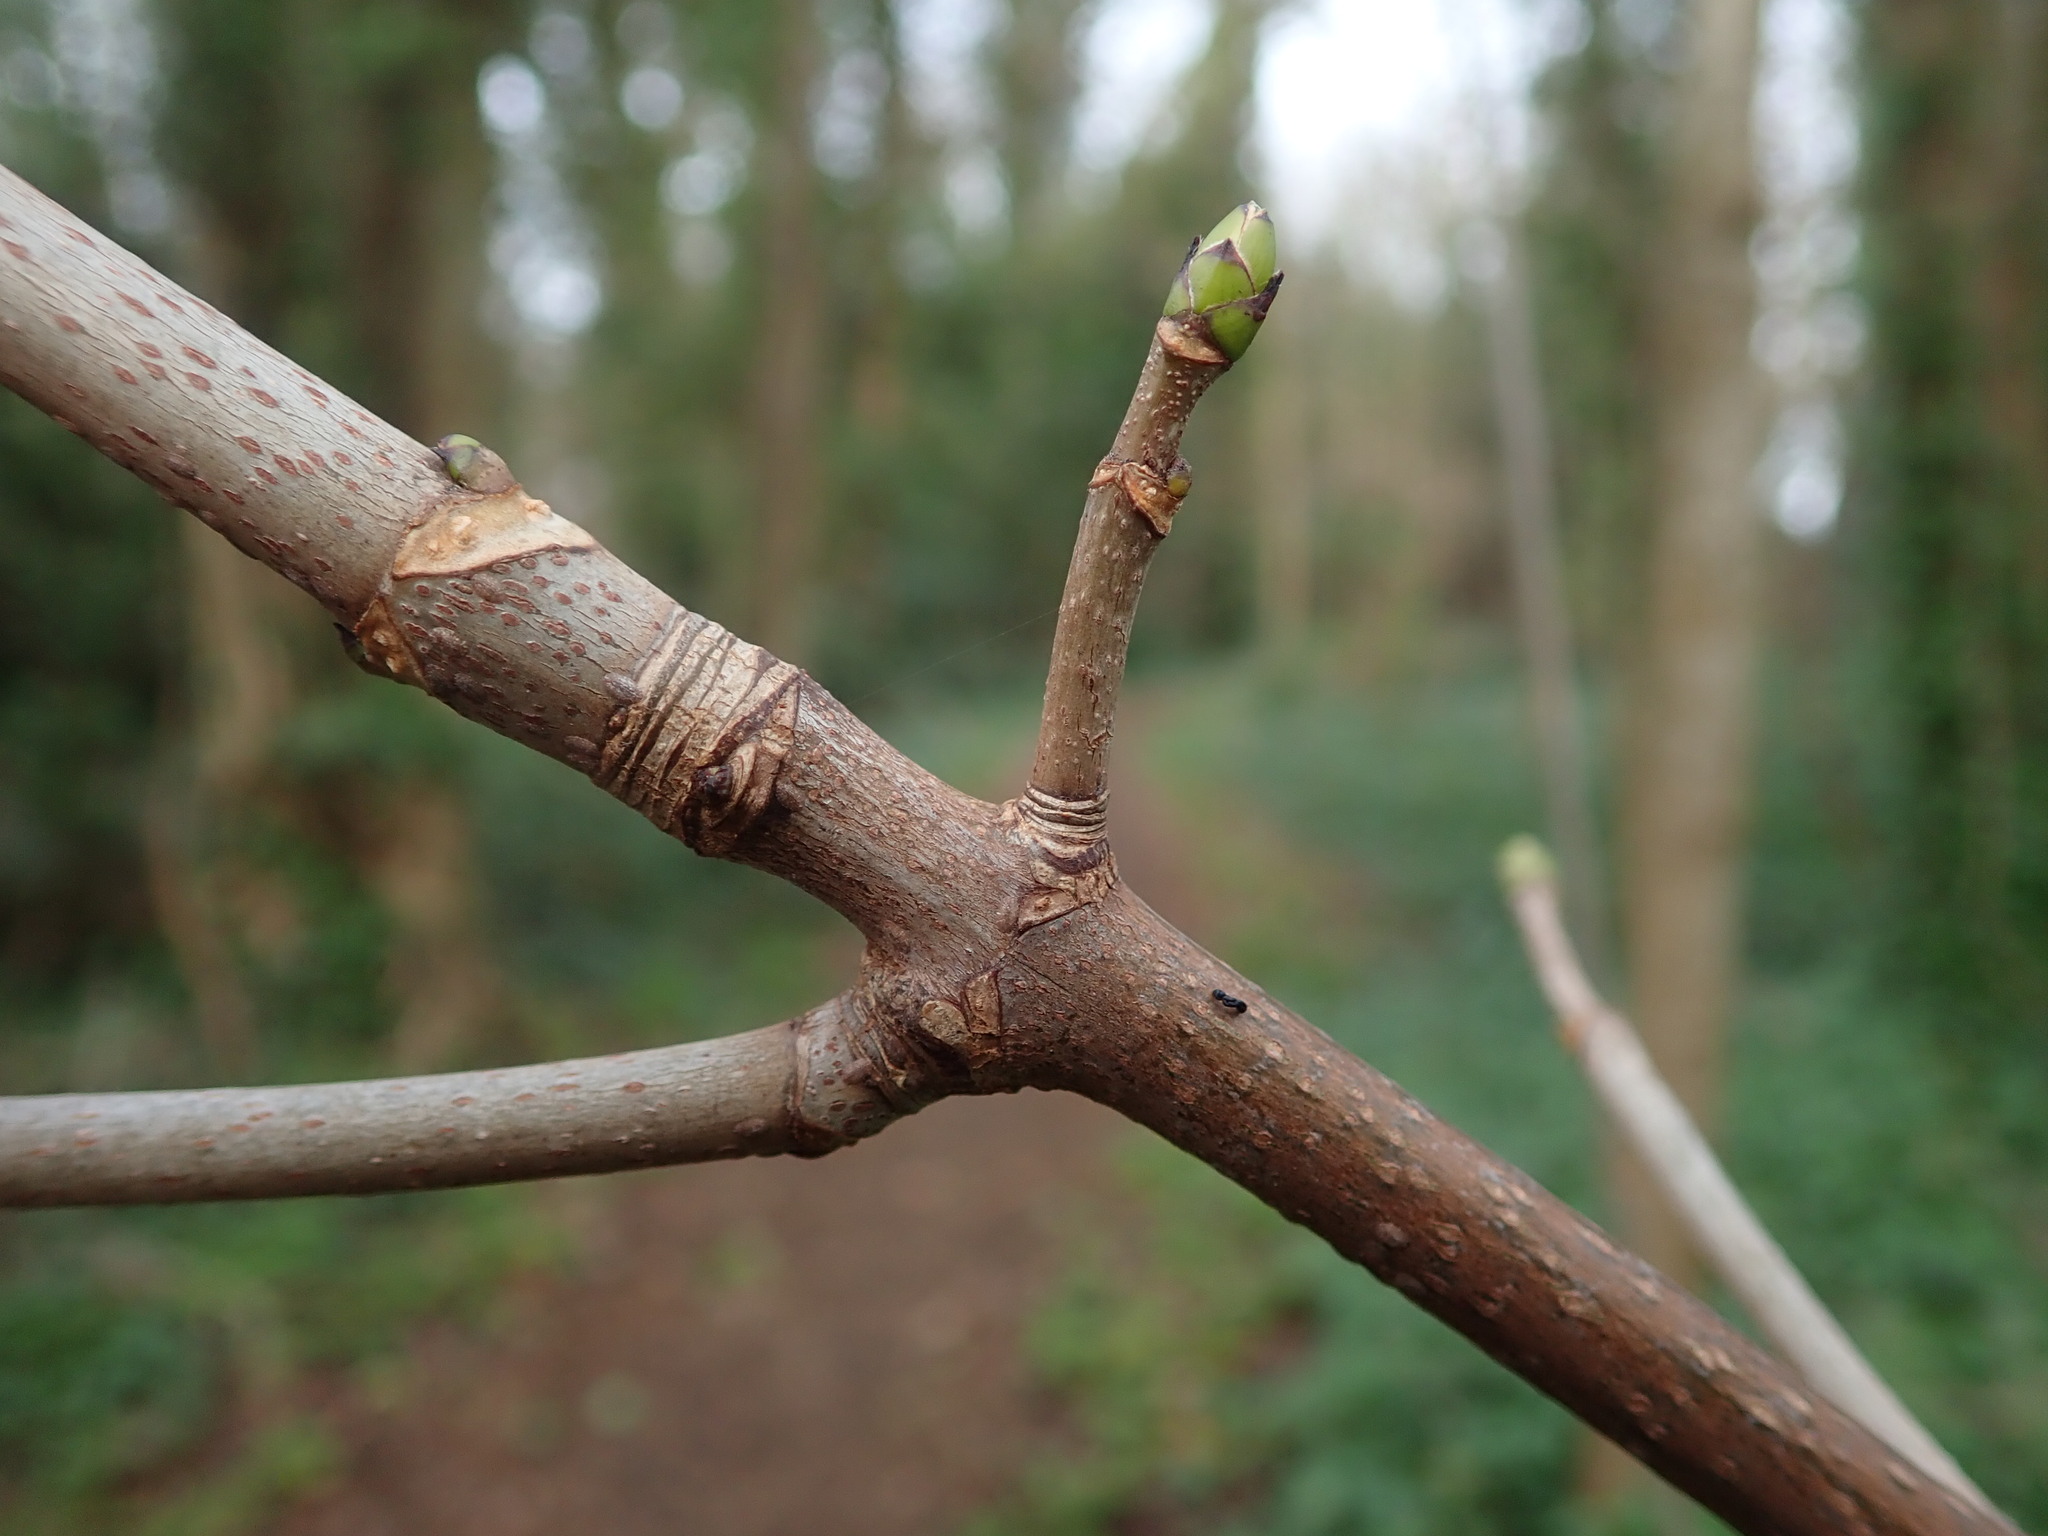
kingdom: Plantae
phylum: Tracheophyta
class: Magnoliopsida
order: Sapindales
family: Sapindaceae
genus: Acer
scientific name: Acer pseudoplatanus
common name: Sycamore
